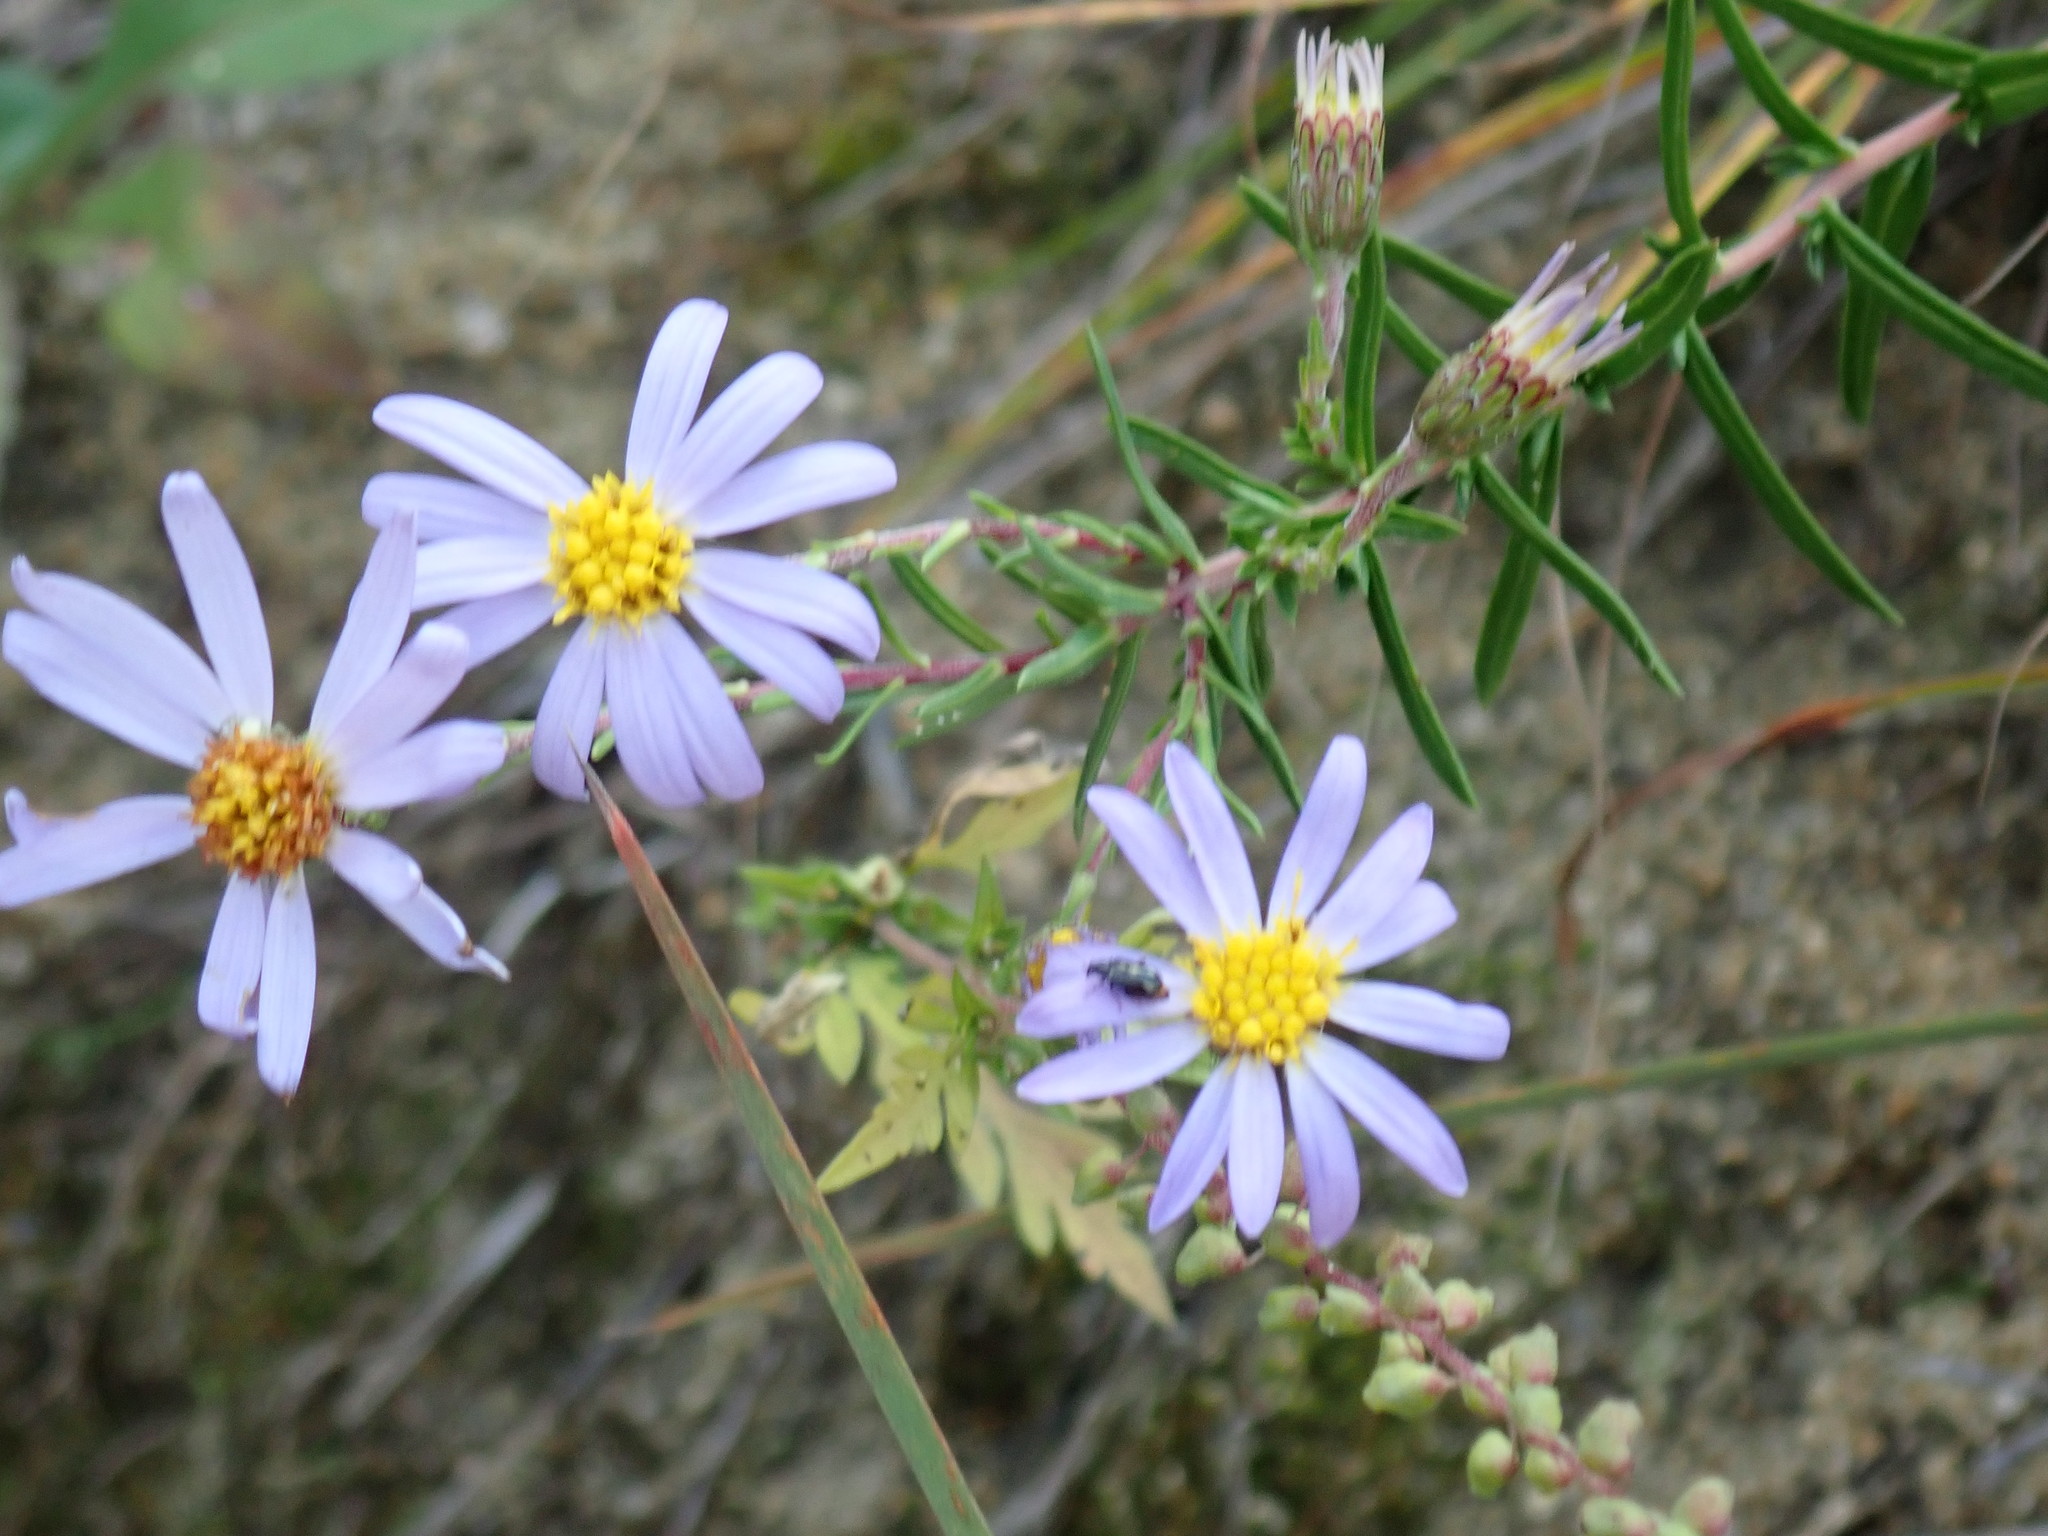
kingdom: Plantae
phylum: Tracheophyta
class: Magnoliopsida
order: Asterales
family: Asteraceae
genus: Ionactis
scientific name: Ionactis linariifolia
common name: Flax-leaf aster
